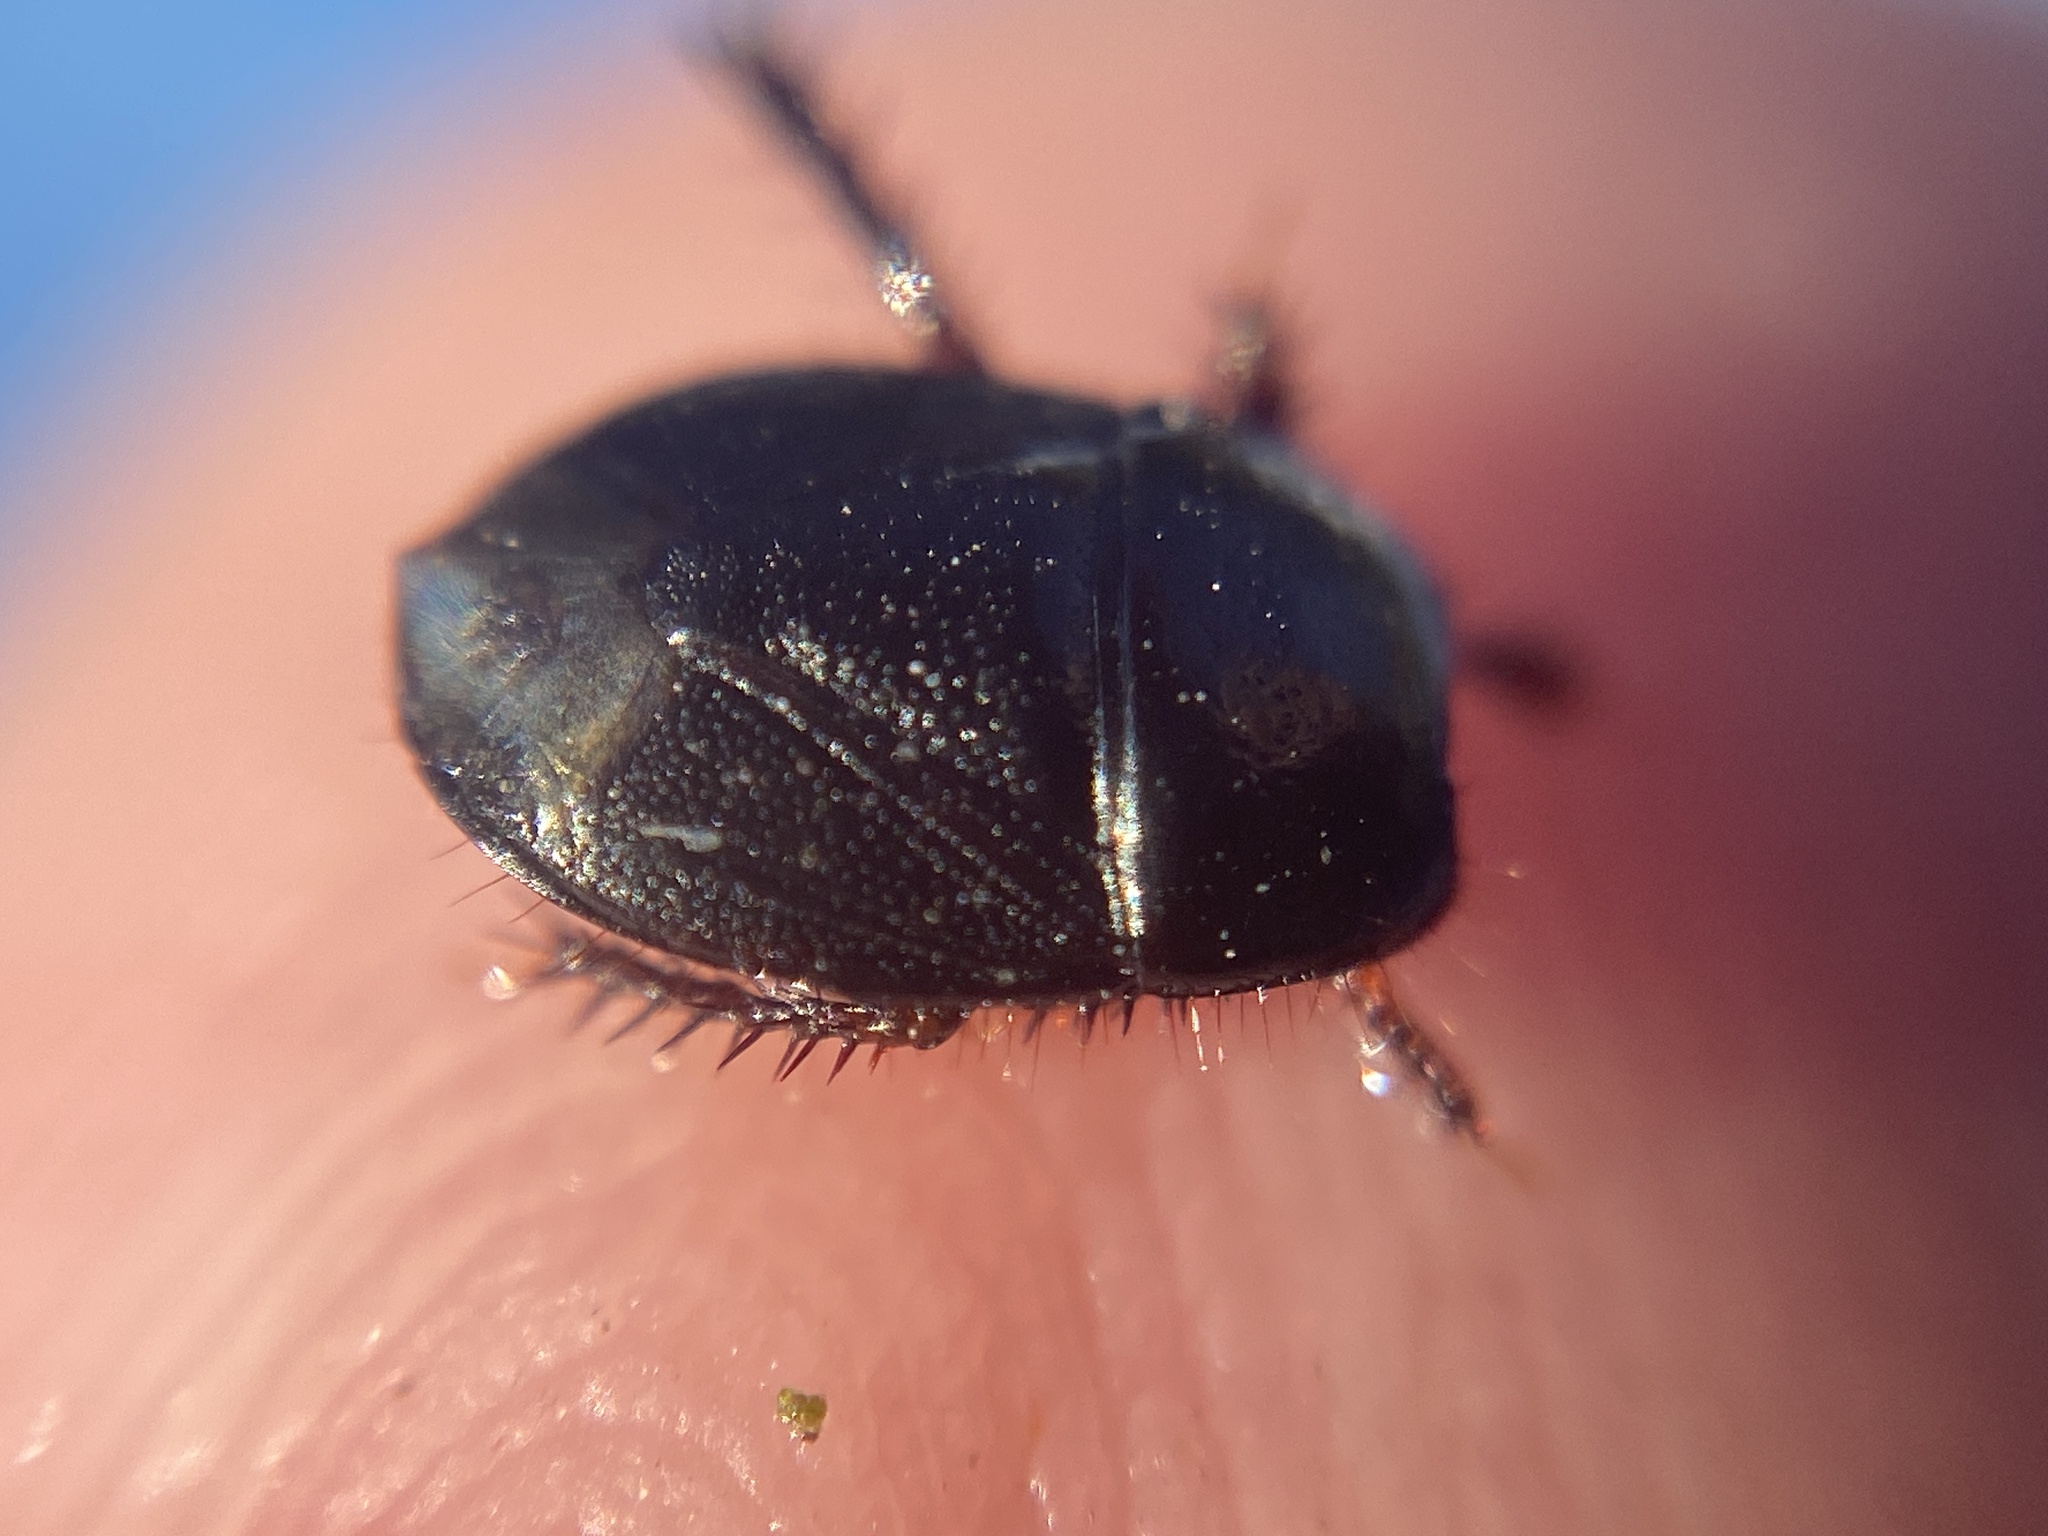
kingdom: Animalia
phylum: Arthropoda
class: Insecta
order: Hemiptera
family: Cydnidae
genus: Microporus
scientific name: Microporus nigrita
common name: Burrower bug
